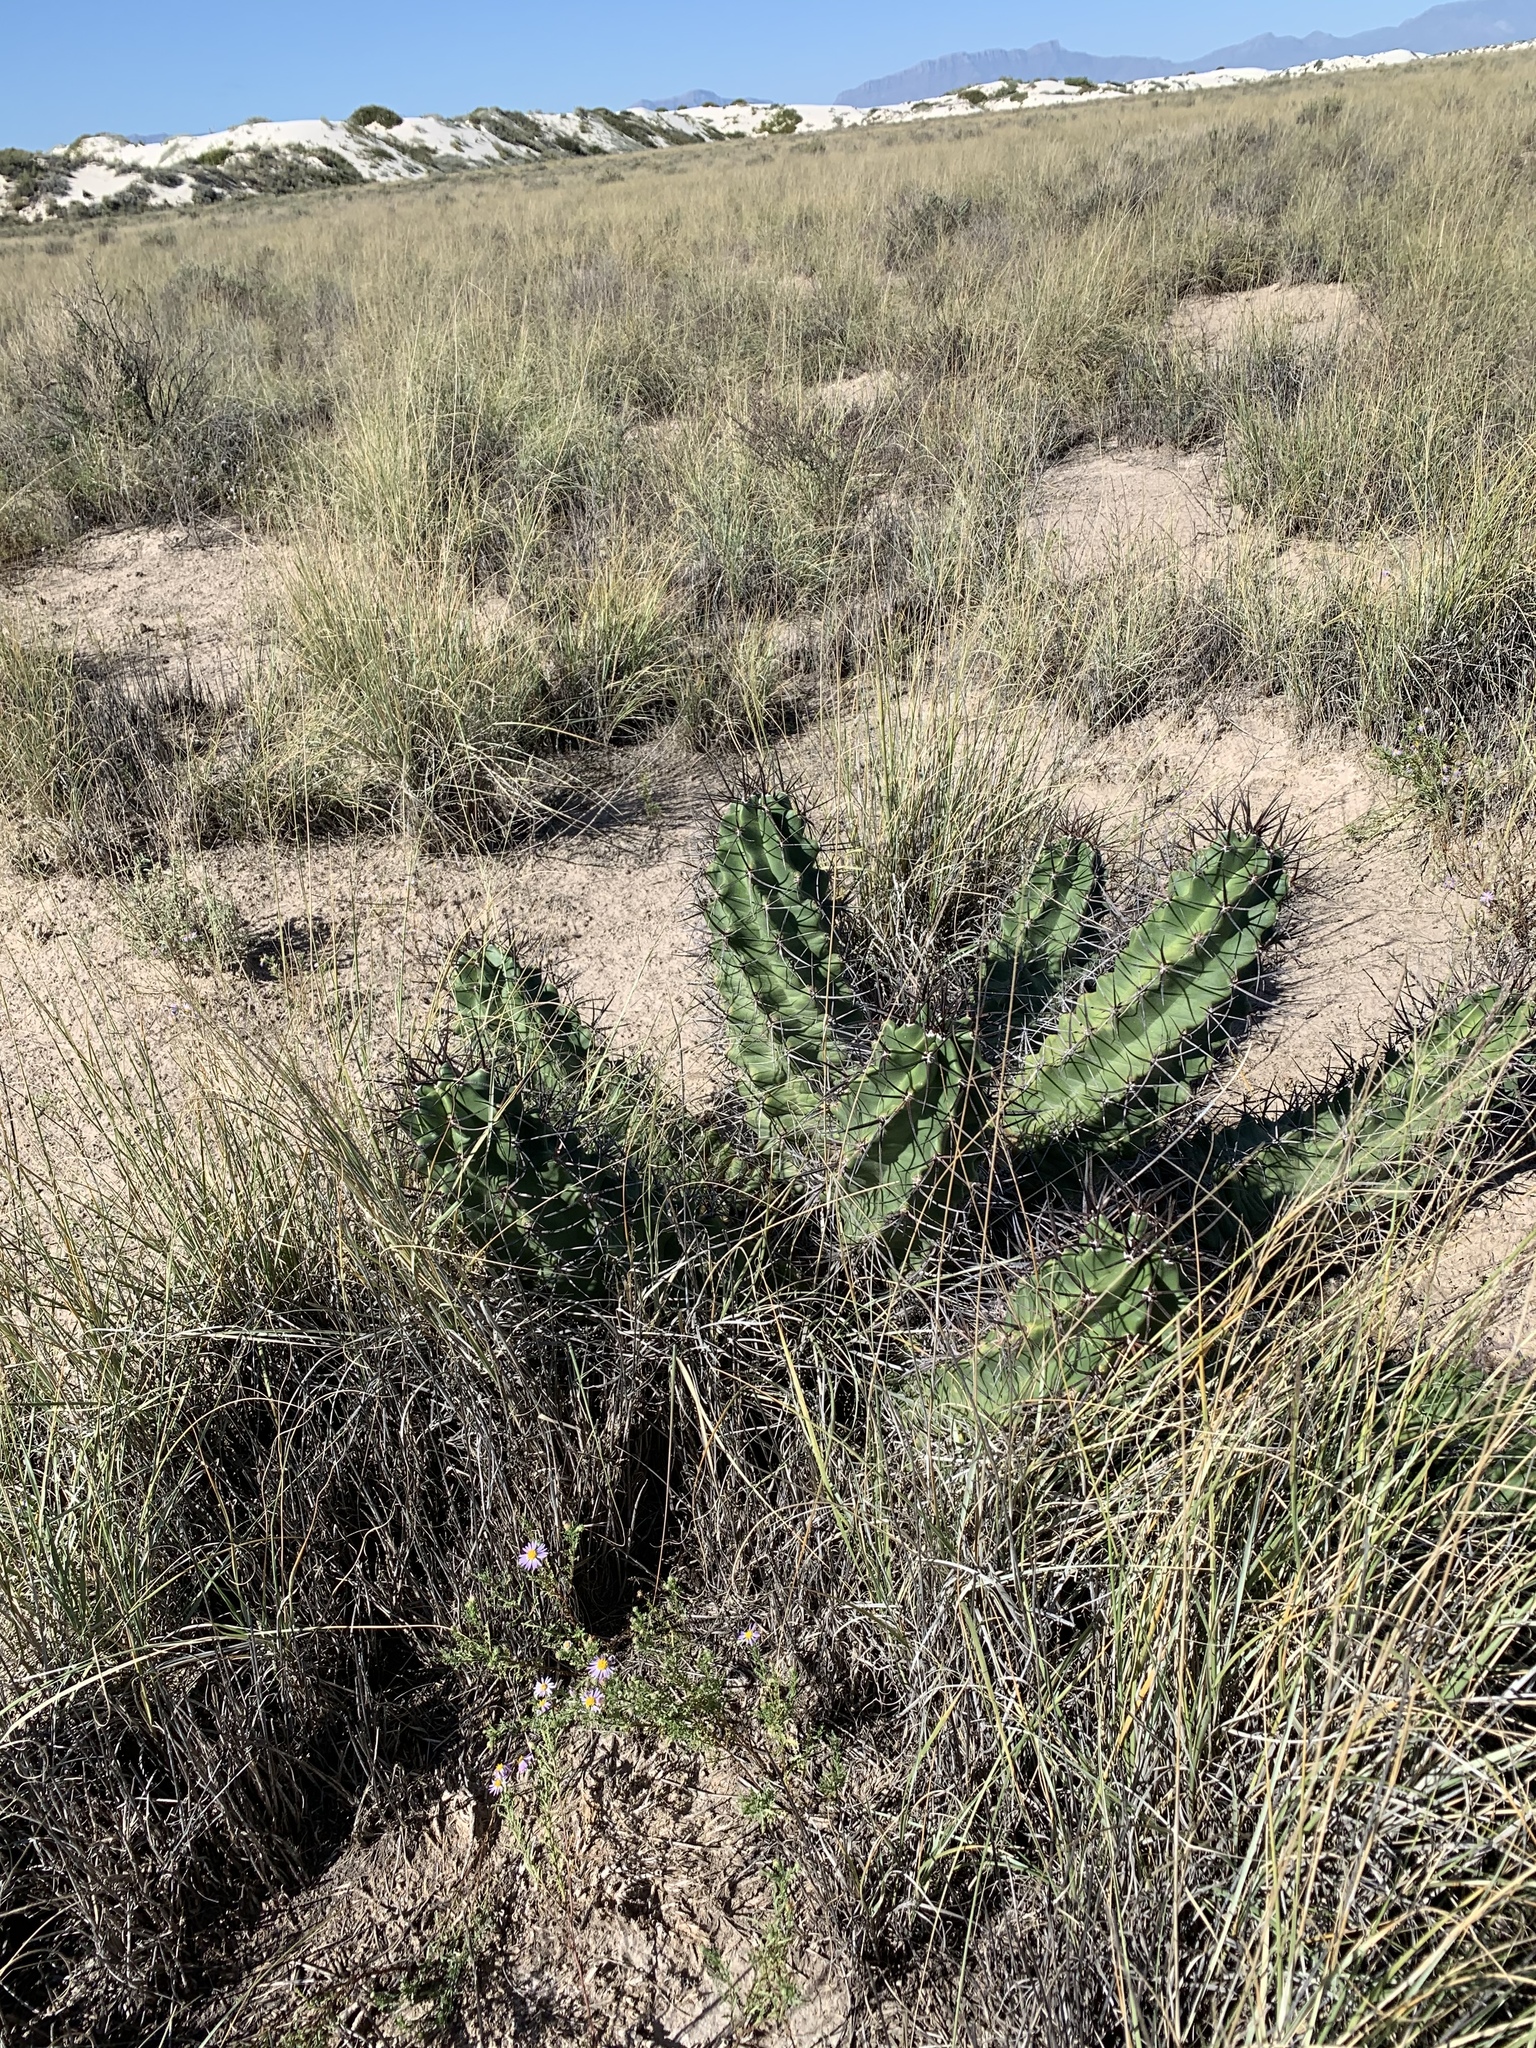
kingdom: Plantae
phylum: Tracheophyta
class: Magnoliopsida
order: Caryophyllales
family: Cactaceae
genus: Echinocereus
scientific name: Echinocereus triglochidiatus
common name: Claretcup hedgehog
